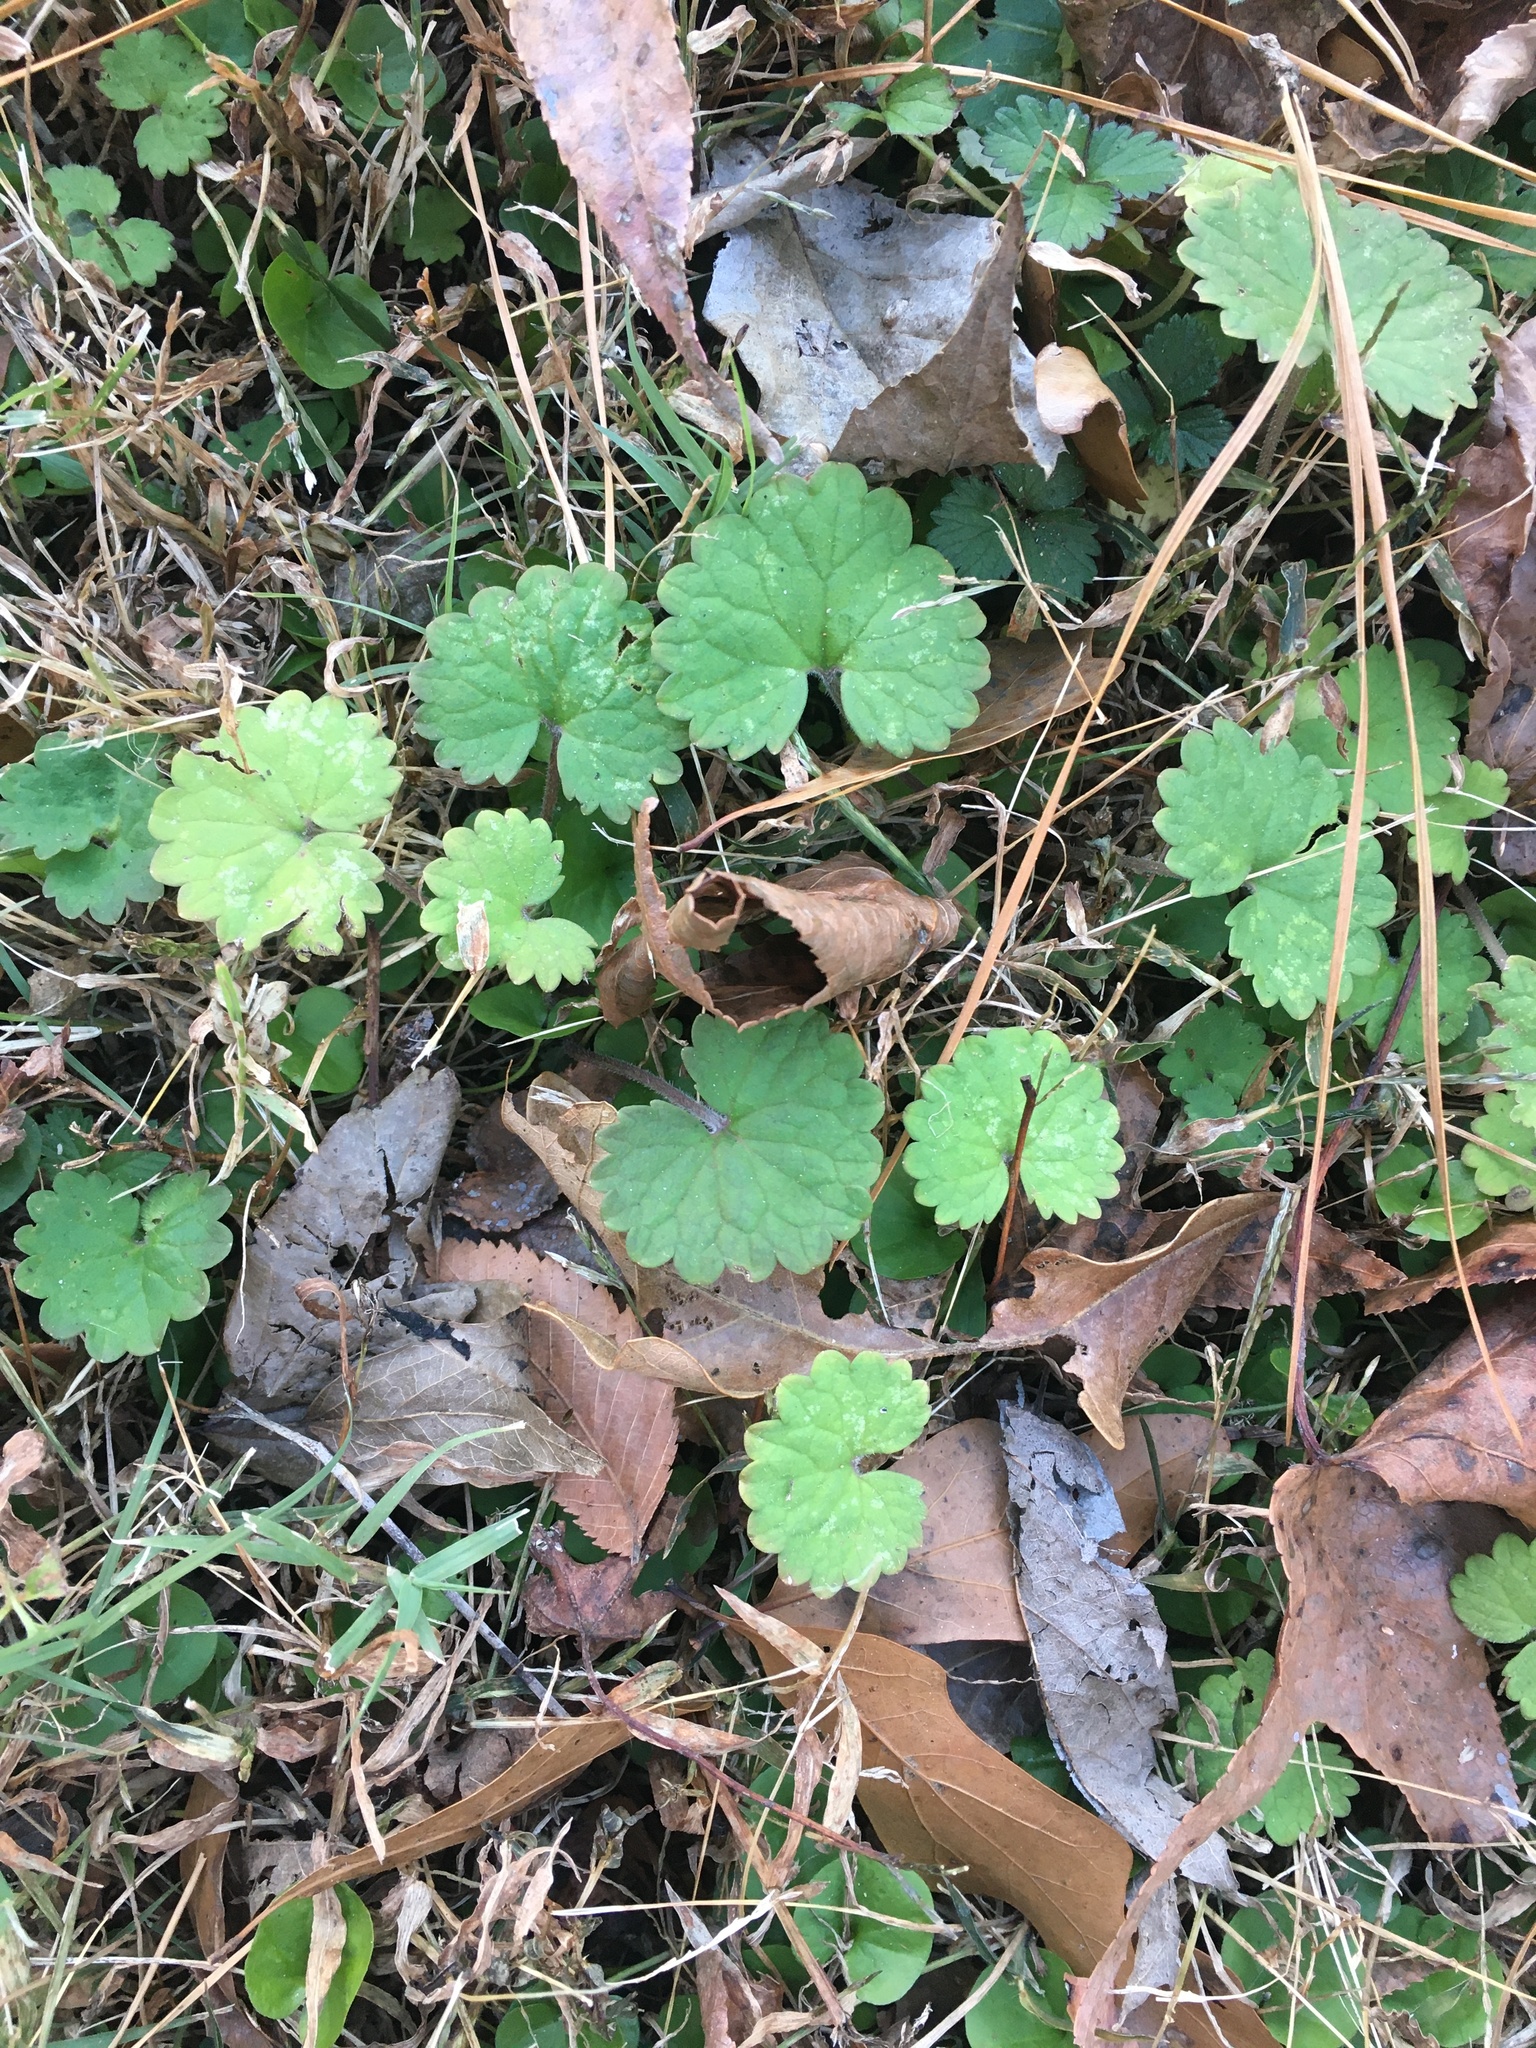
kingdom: Plantae
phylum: Tracheophyta
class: Magnoliopsida
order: Lamiales
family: Lamiaceae
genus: Glechoma
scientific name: Glechoma hederacea
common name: Ground ivy
